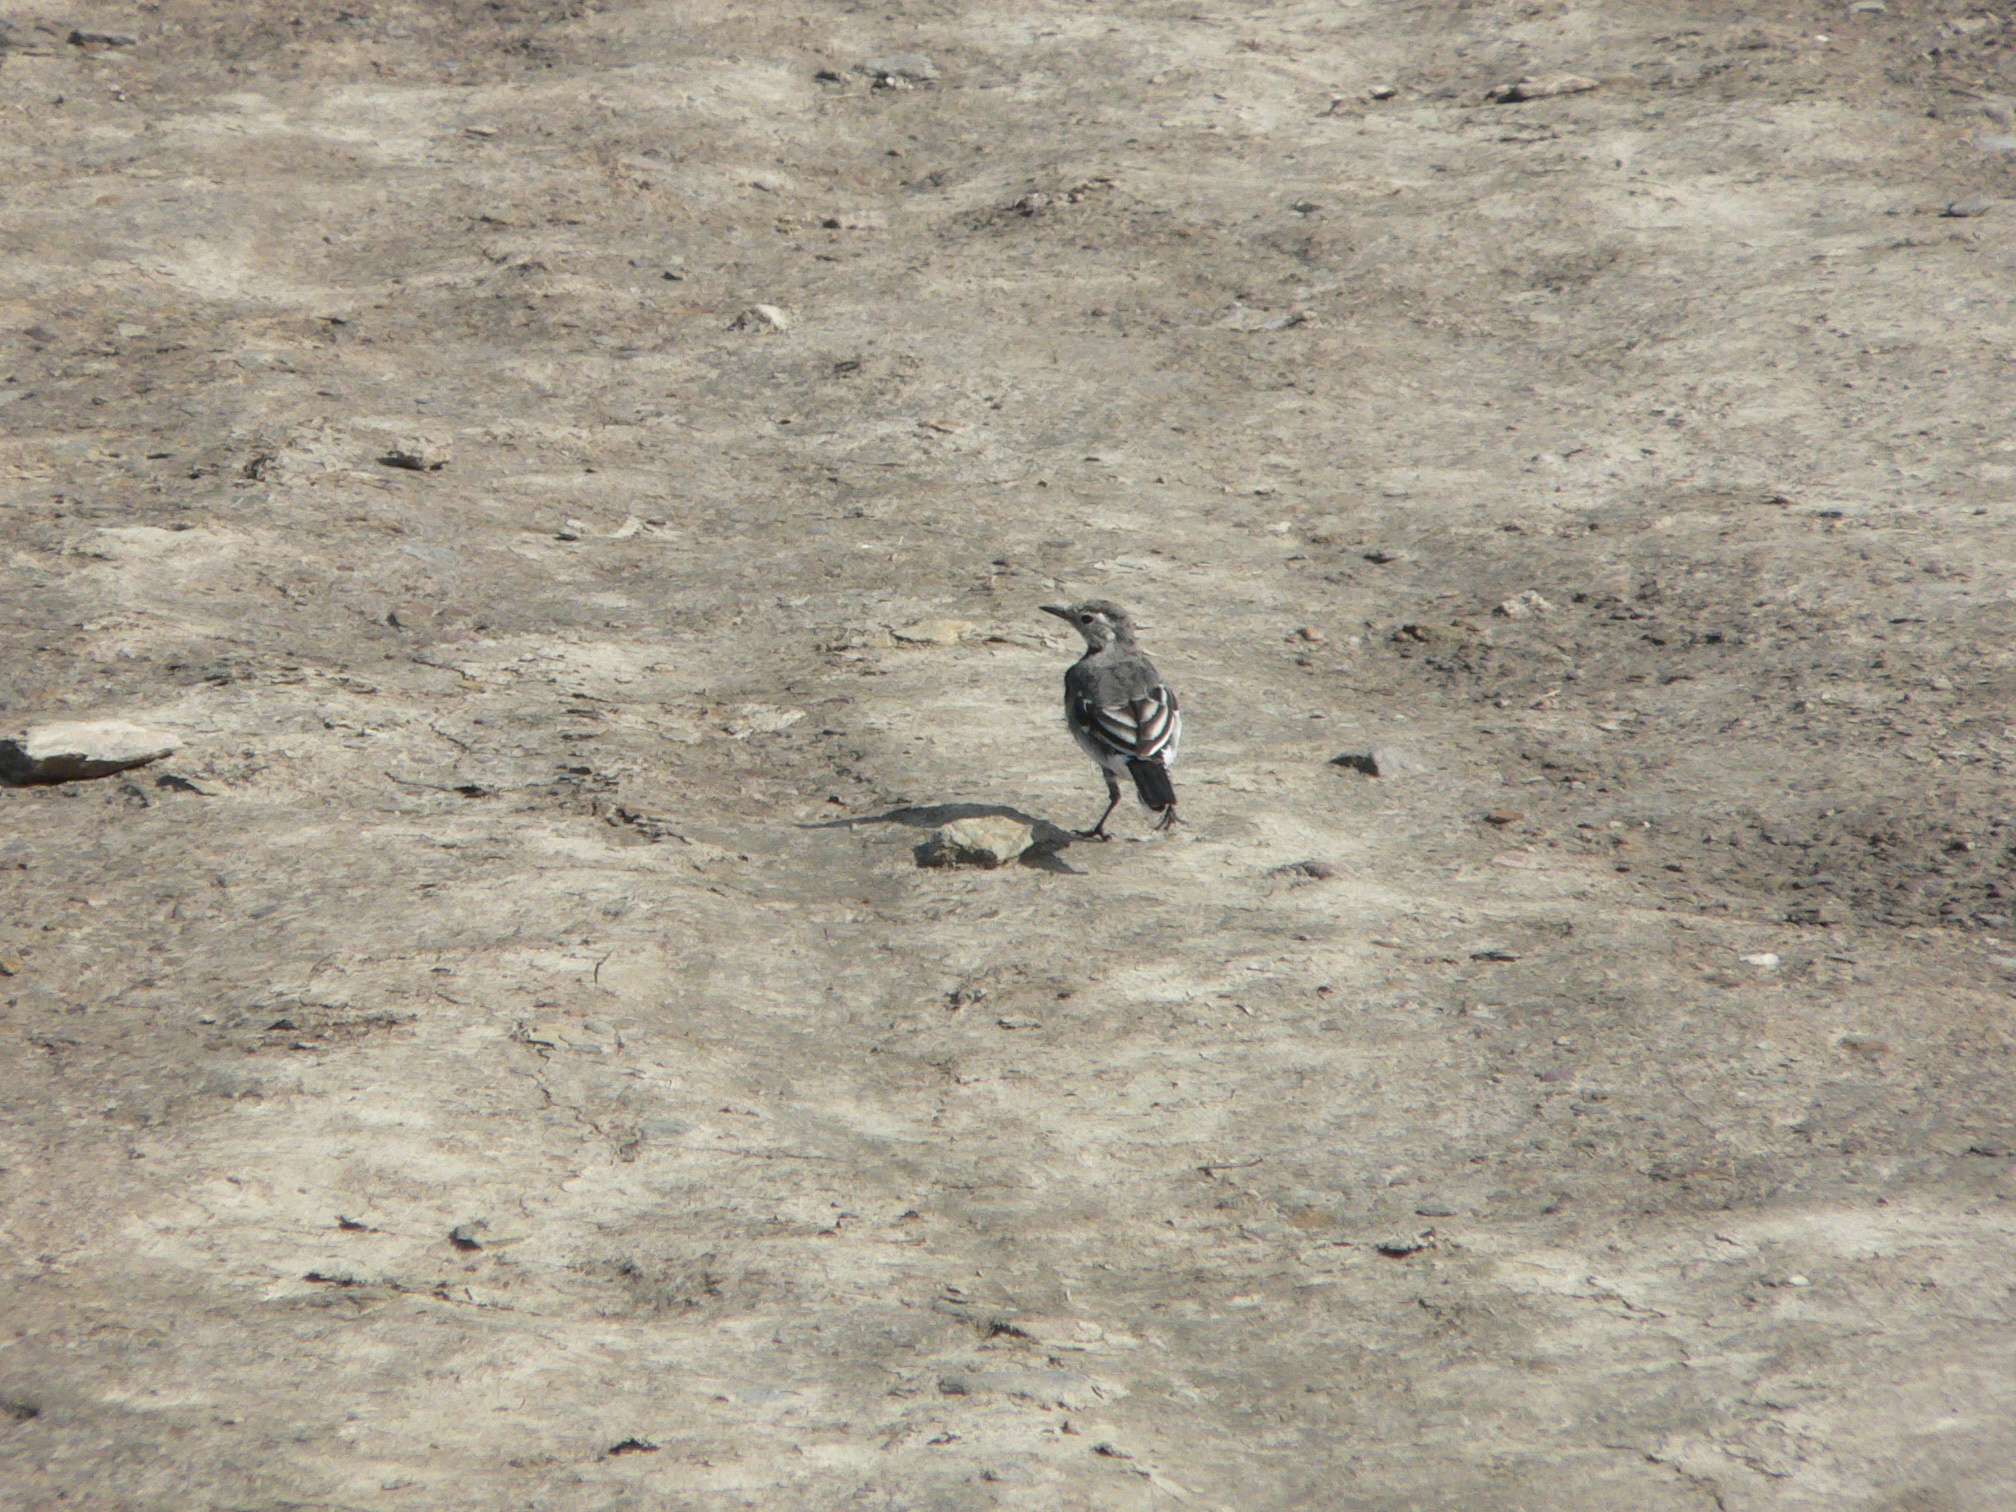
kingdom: Animalia
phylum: Chordata
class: Aves
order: Passeriformes
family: Motacillidae
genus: Motacilla
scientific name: Motacilla alba
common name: White wagtail
